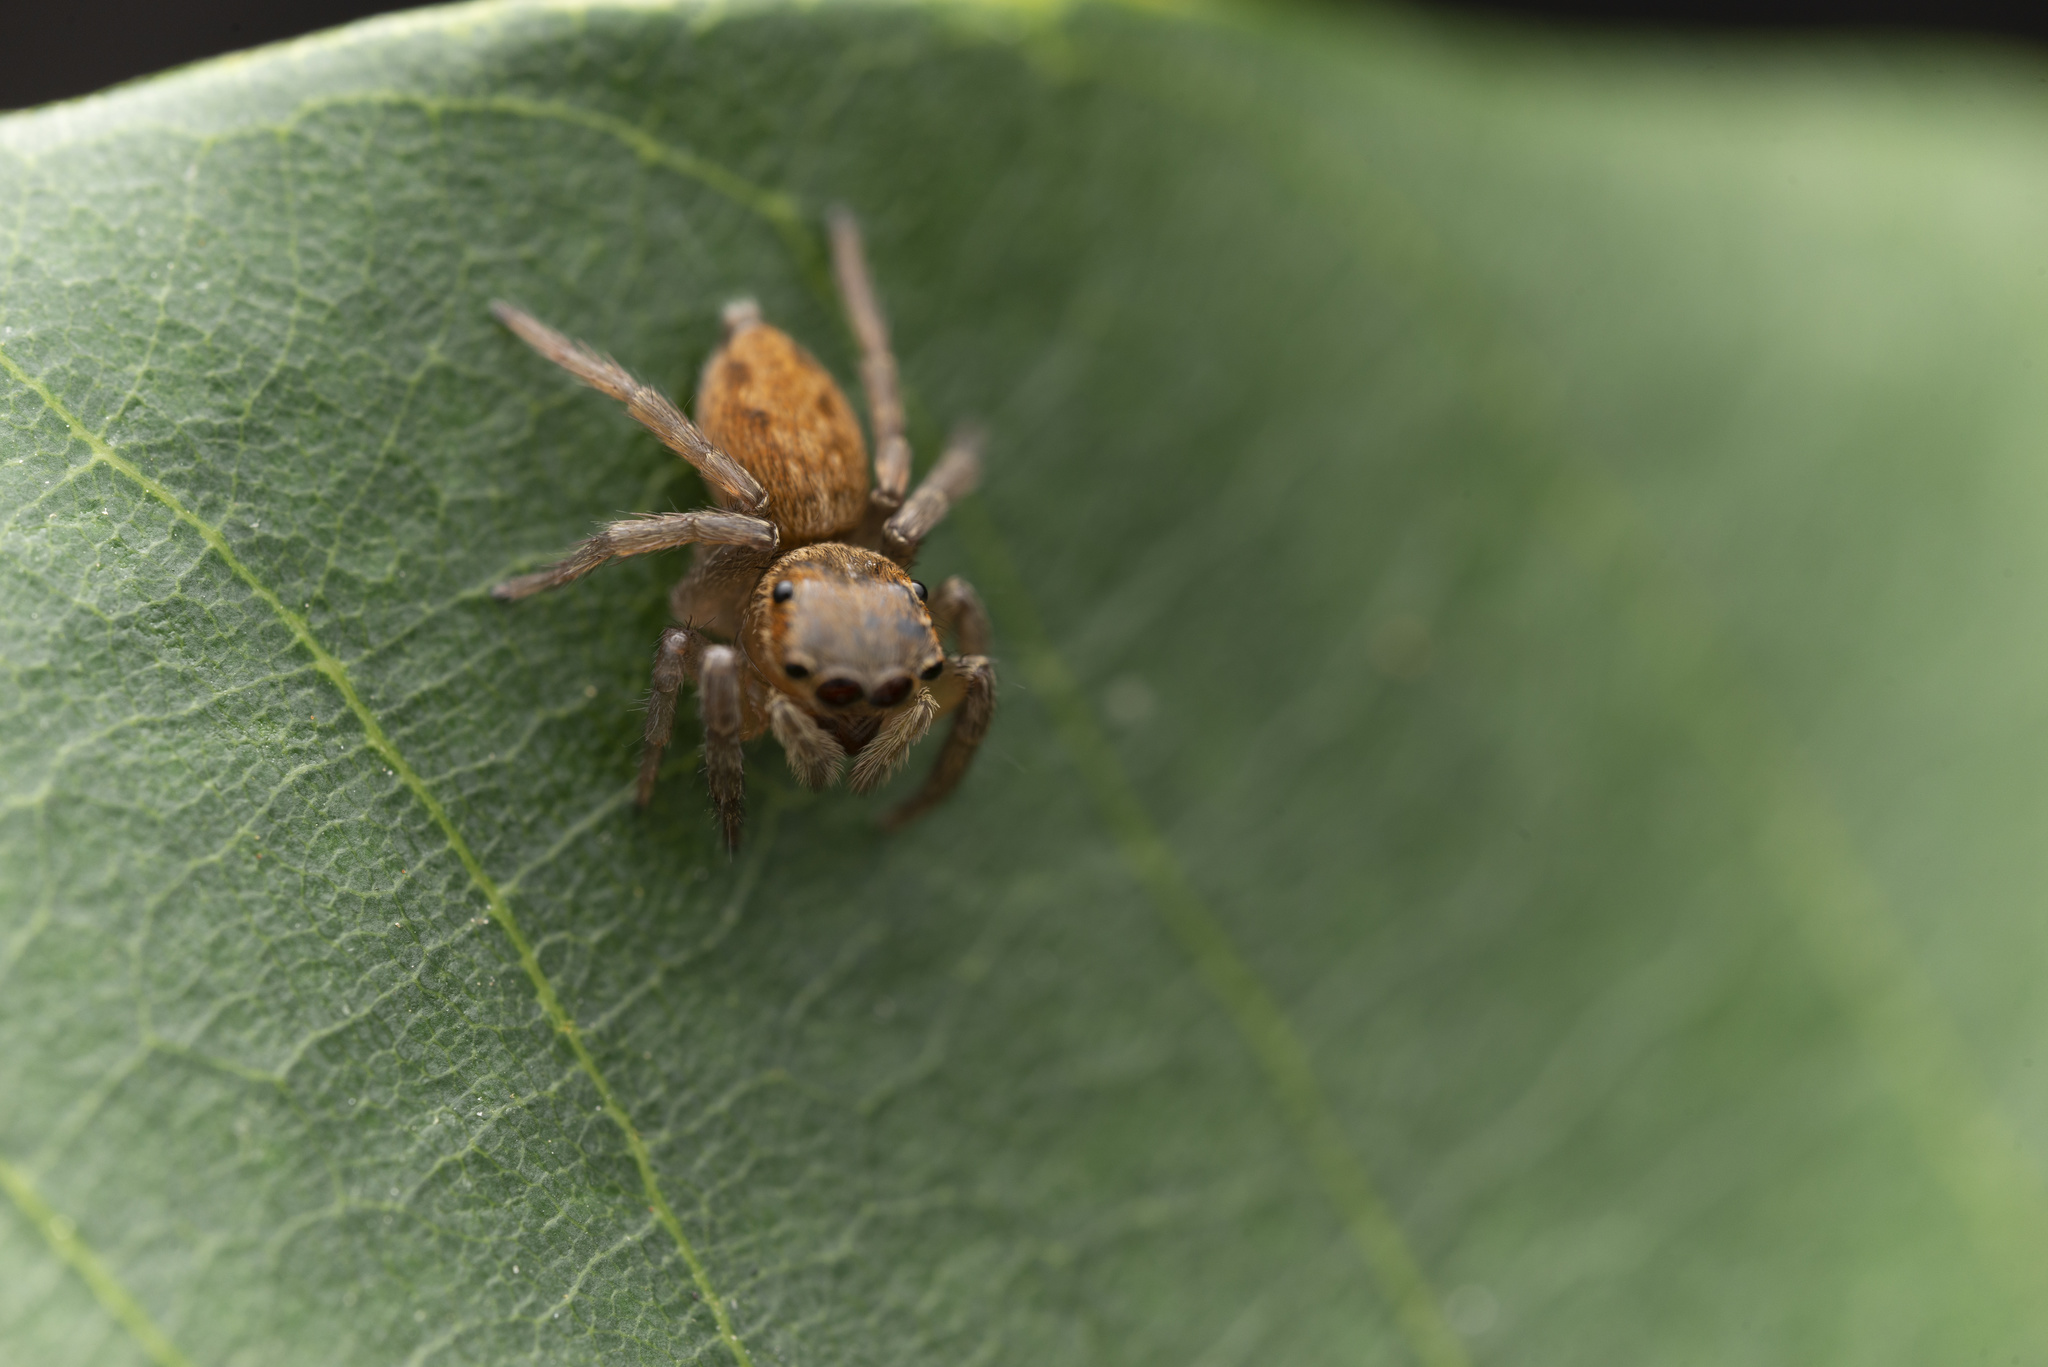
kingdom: Animalia
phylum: Arthropoda
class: Arachnida
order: Araneae
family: Salticidae
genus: Hasarius
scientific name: Hasarius adansoni
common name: Jumping spider
